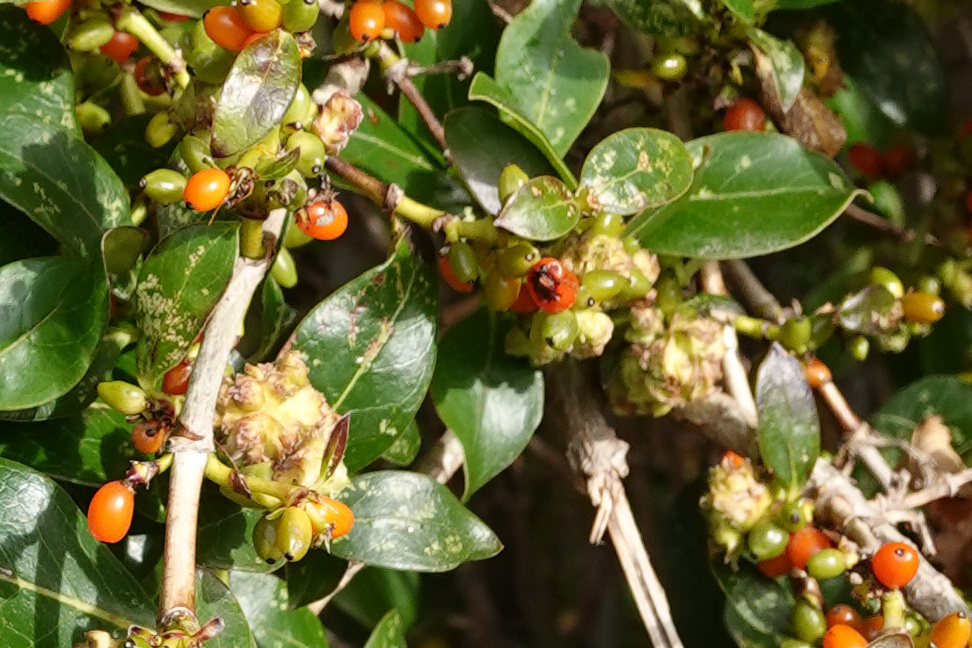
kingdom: Animalia
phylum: Arthropoda
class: Arachnida
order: Trombidiformes
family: Eriophyidae
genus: Acalitus
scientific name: Acalitus
